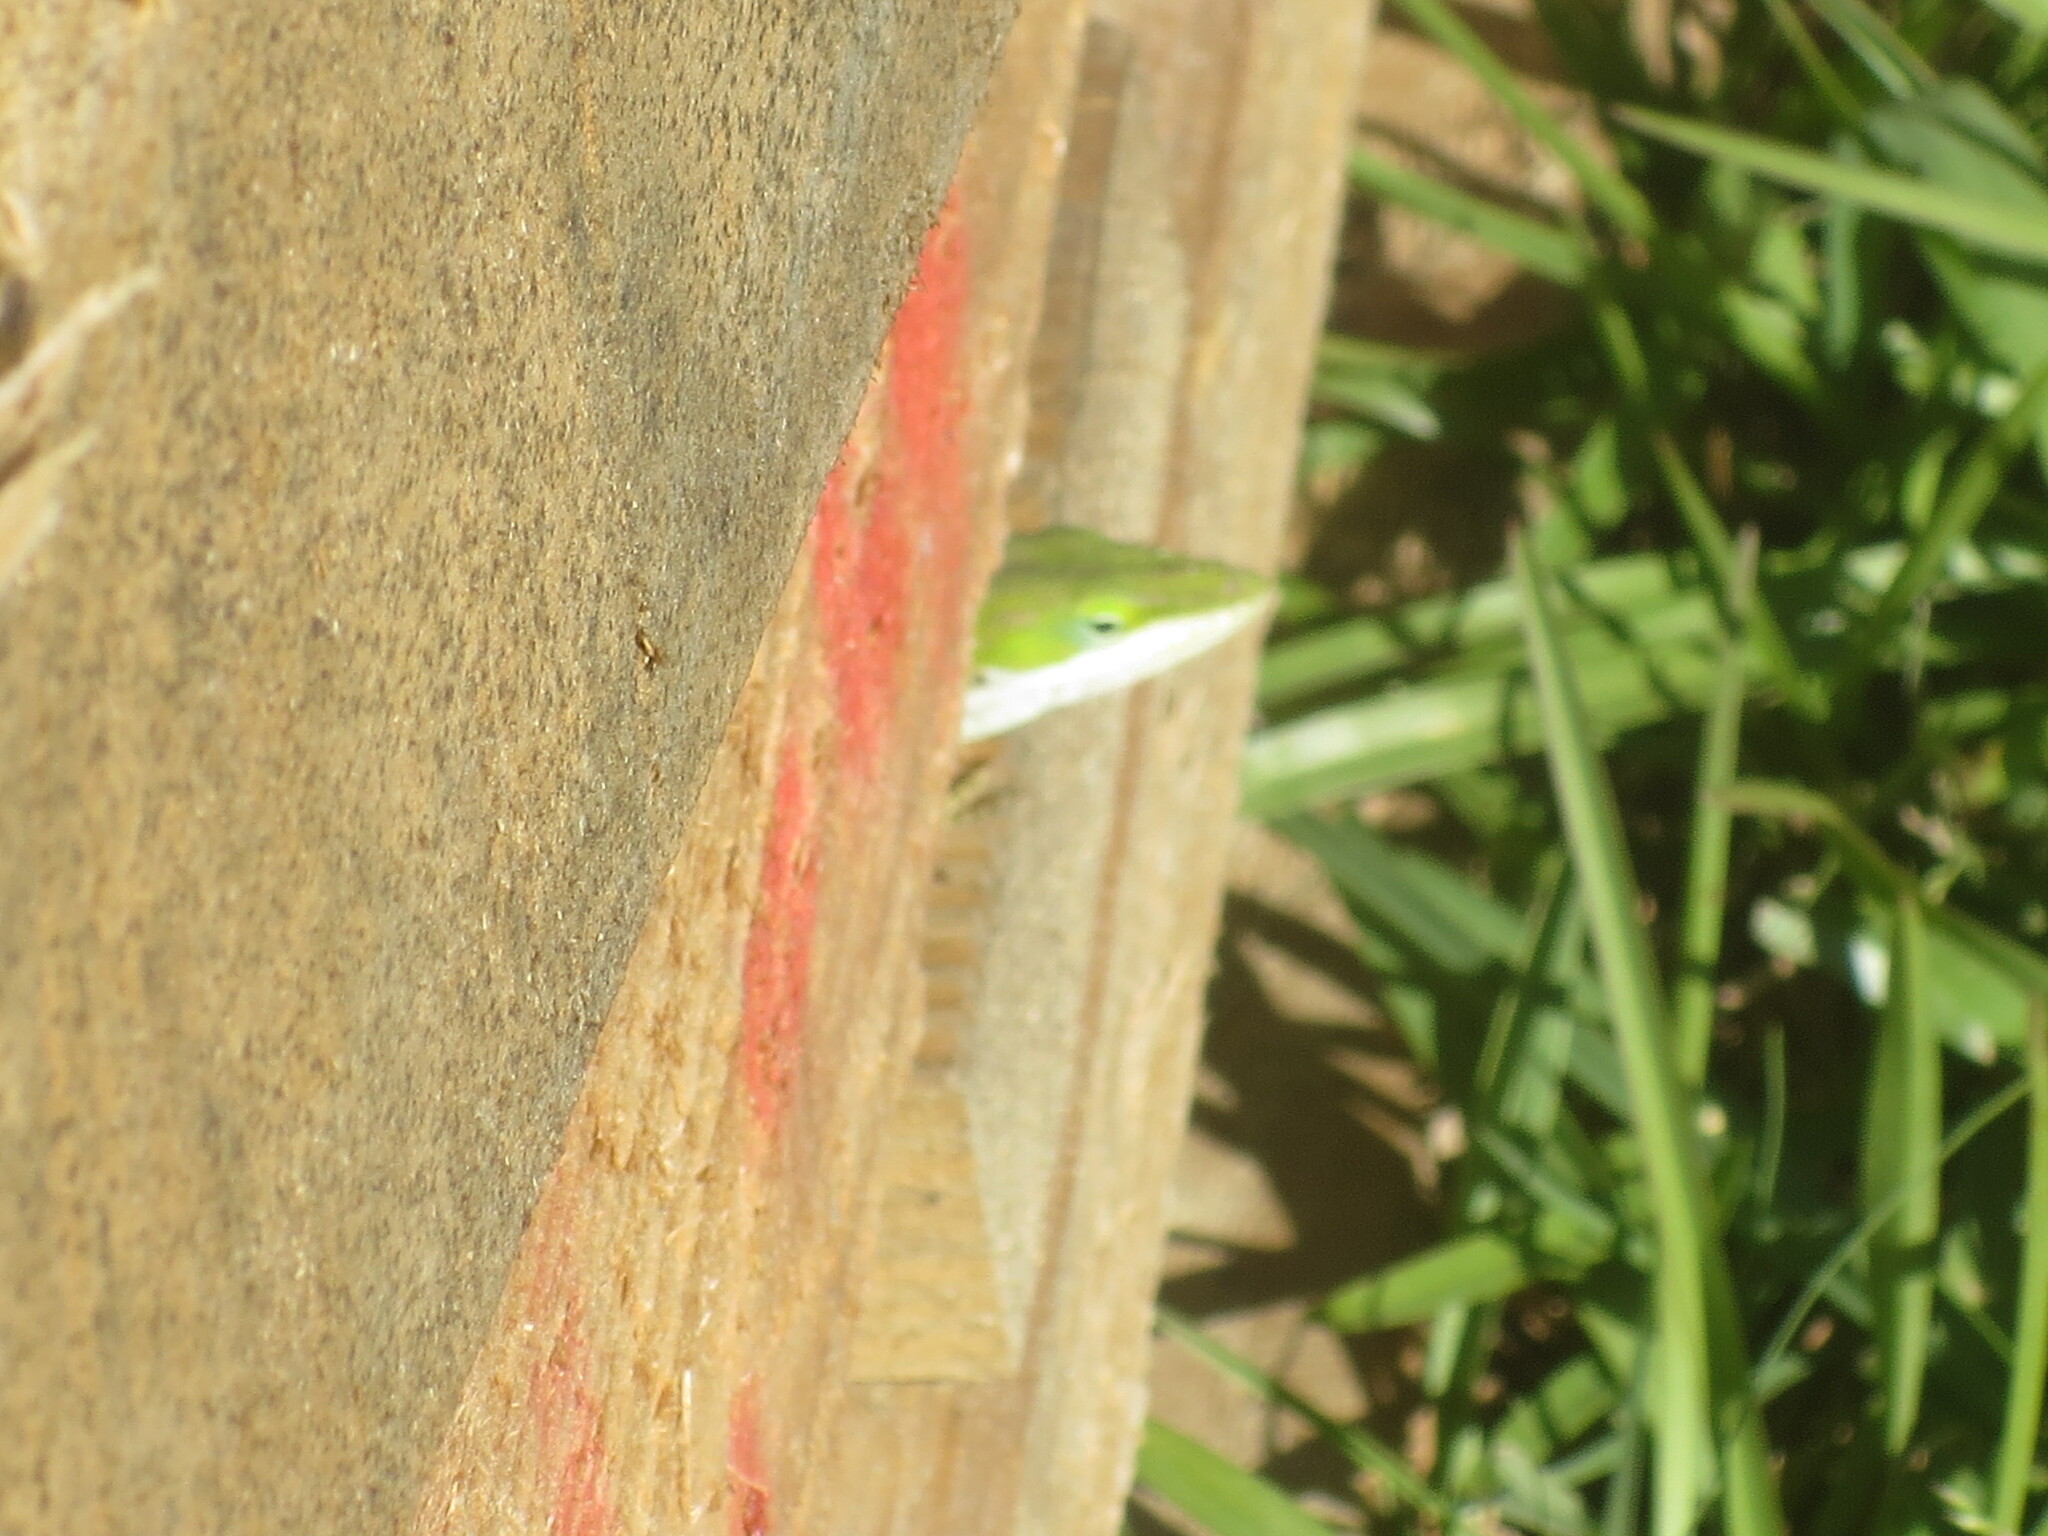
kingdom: Animalia
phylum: Chordata
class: Squamata
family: Dactyloidae
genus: Anolis
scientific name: Anolis carolinensis
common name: Green anole
